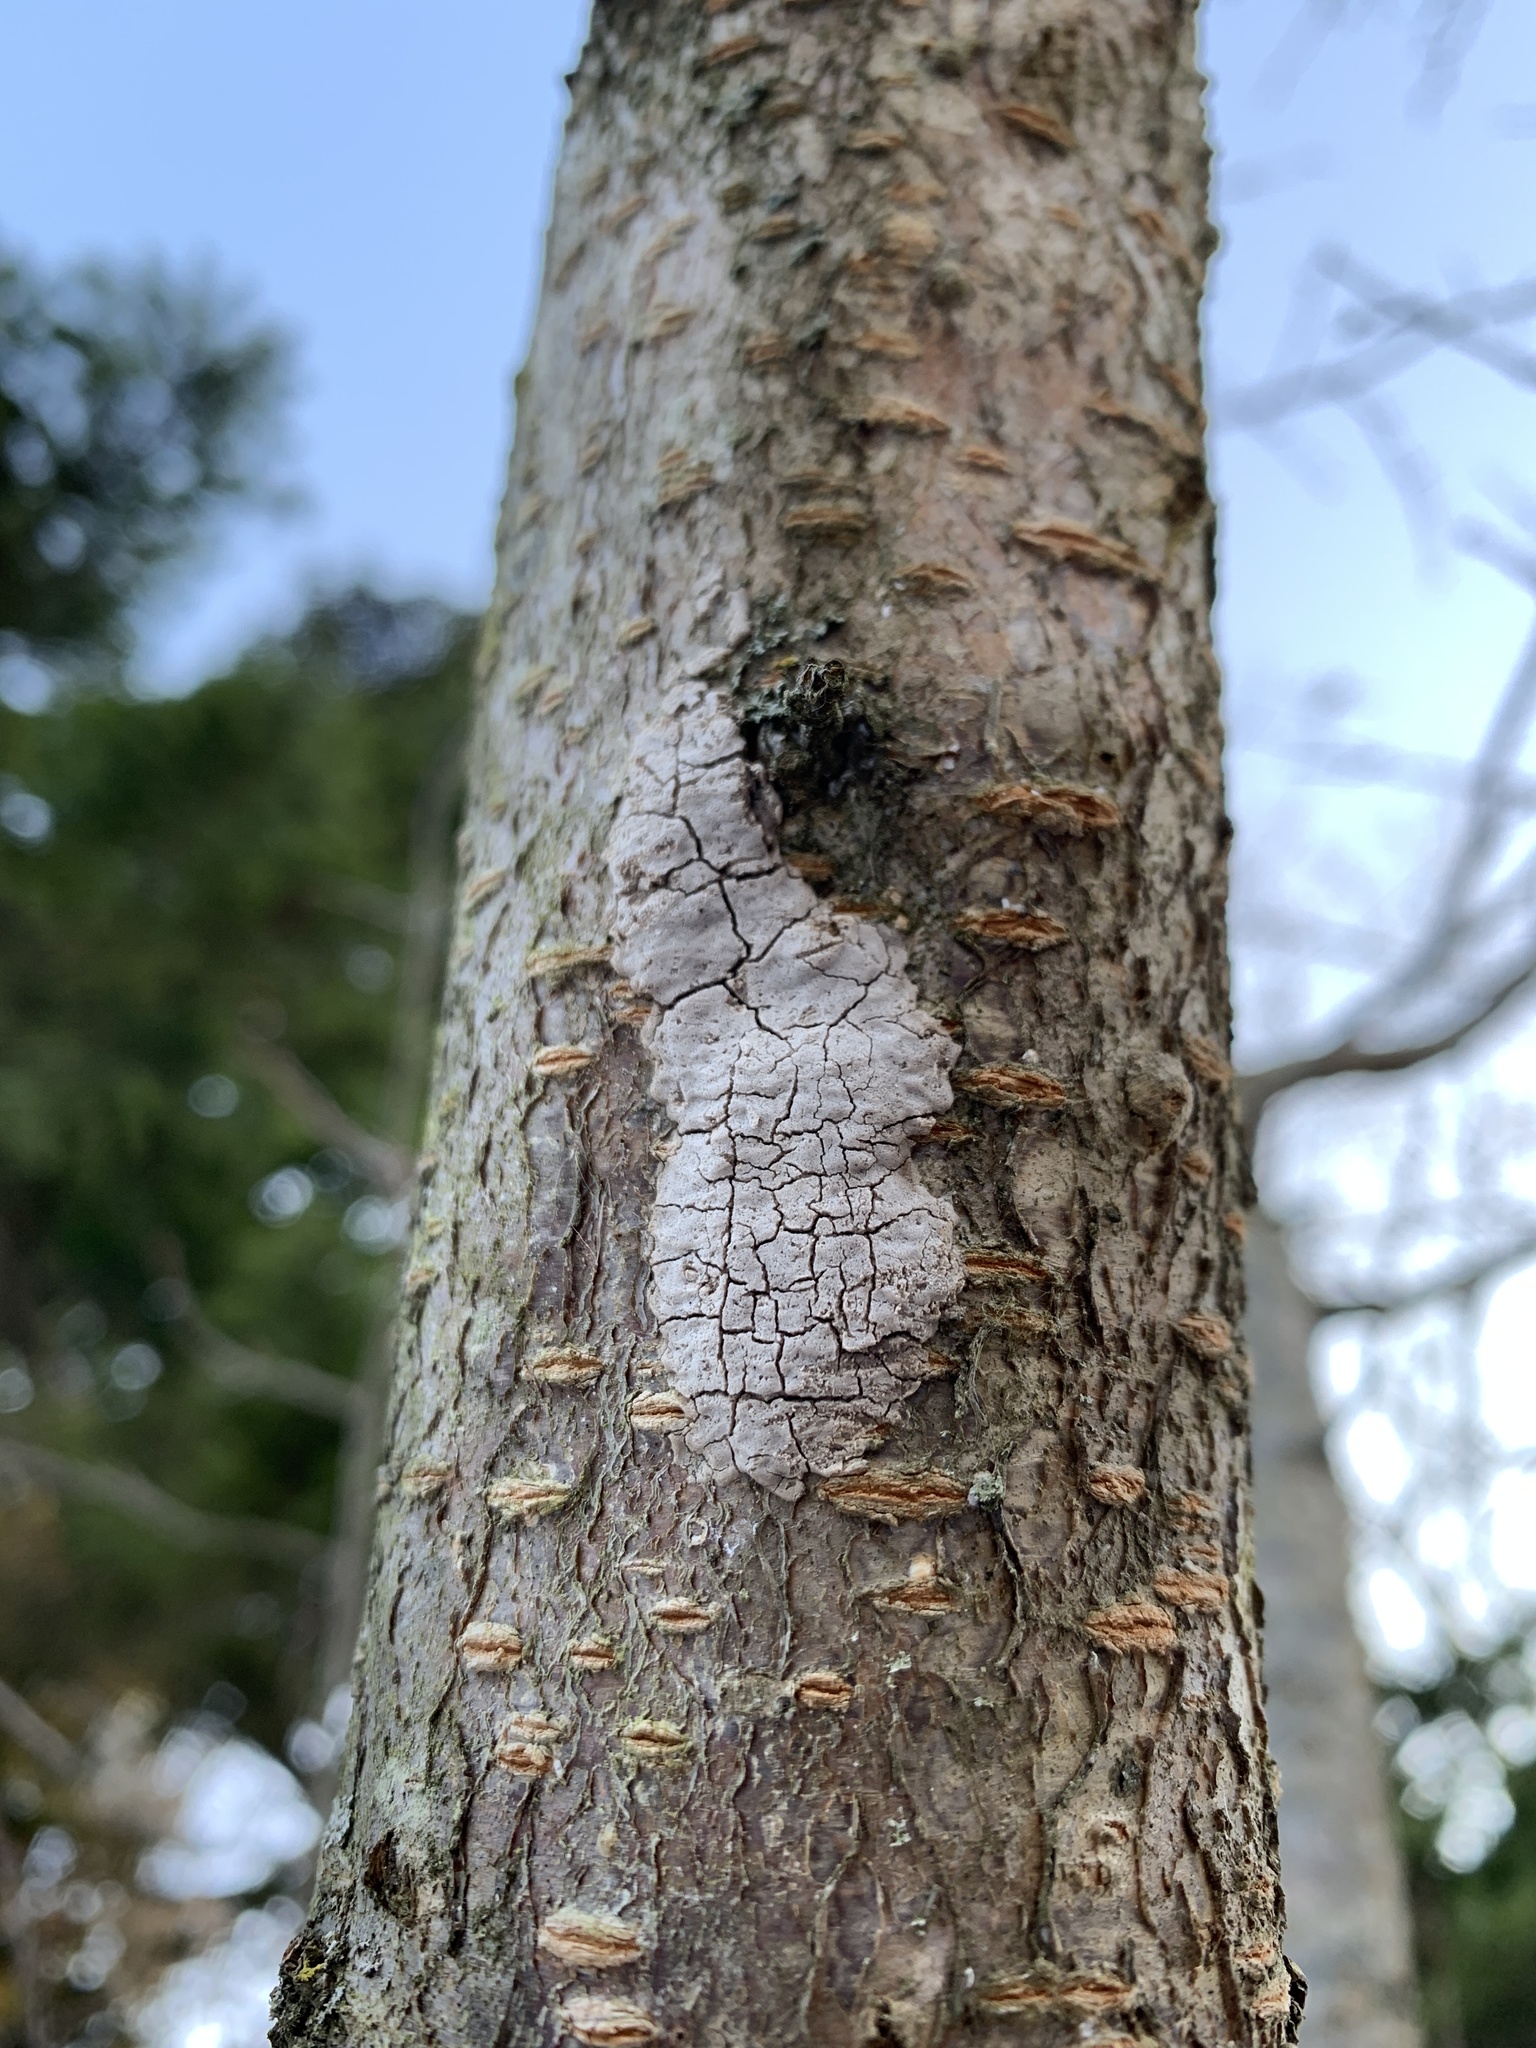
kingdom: Animalia
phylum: Arthropoda
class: Insecta
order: Hemiptera
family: Fulgoridae
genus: Lycorma
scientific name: Lycorma delicatula
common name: Spotted lanternfly
